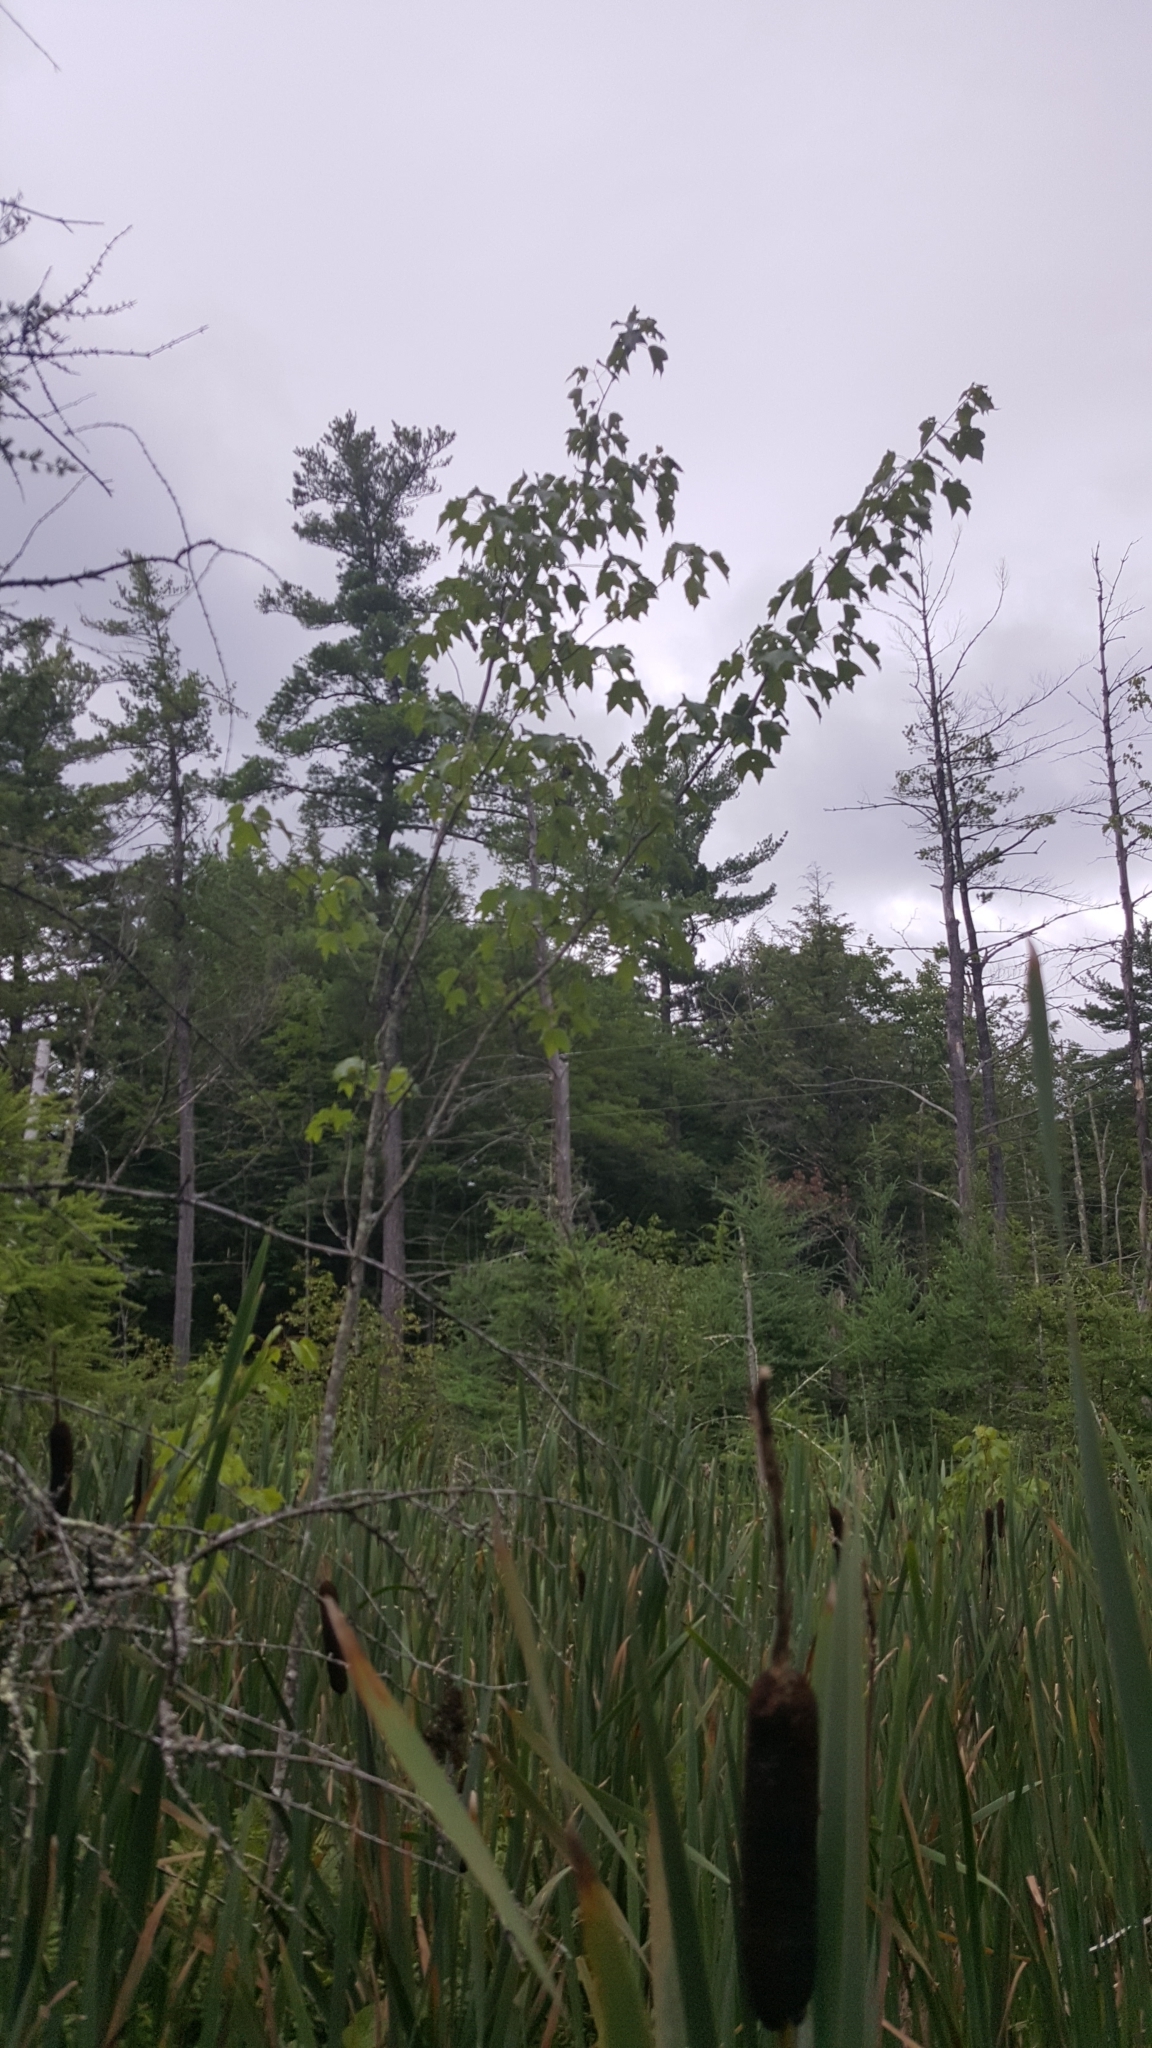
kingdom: Plantae
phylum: Tracheophyta
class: Magnoliopsida
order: Sapindales
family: Sapindaceae
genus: Acer
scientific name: Acer rubrum
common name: Red maple
